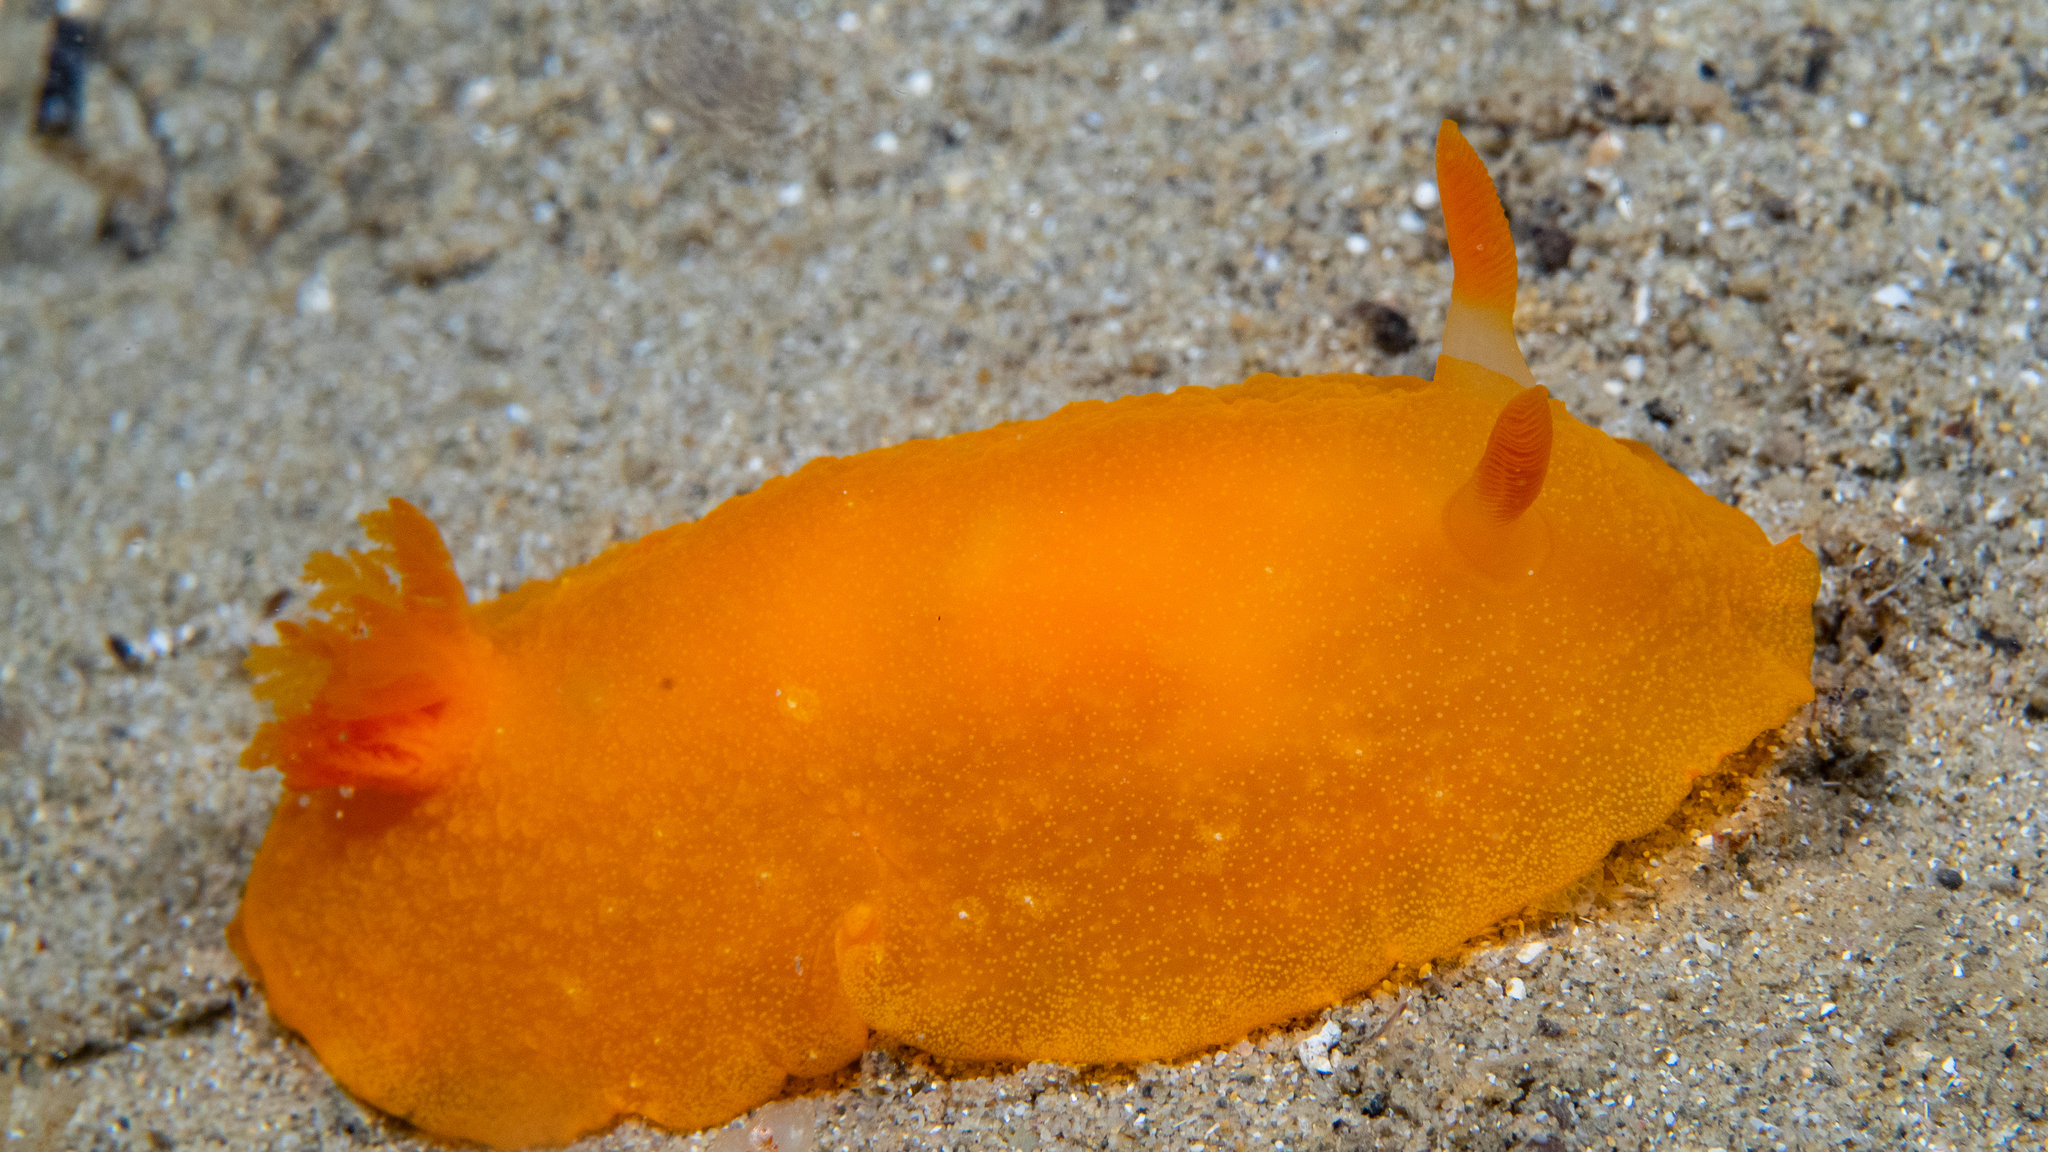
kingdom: Animalia
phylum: Mollusca
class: Gastropoda
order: Nudibranchia
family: Dendrodorididae
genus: Doriopsilla
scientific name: Doriopsilla carneola
